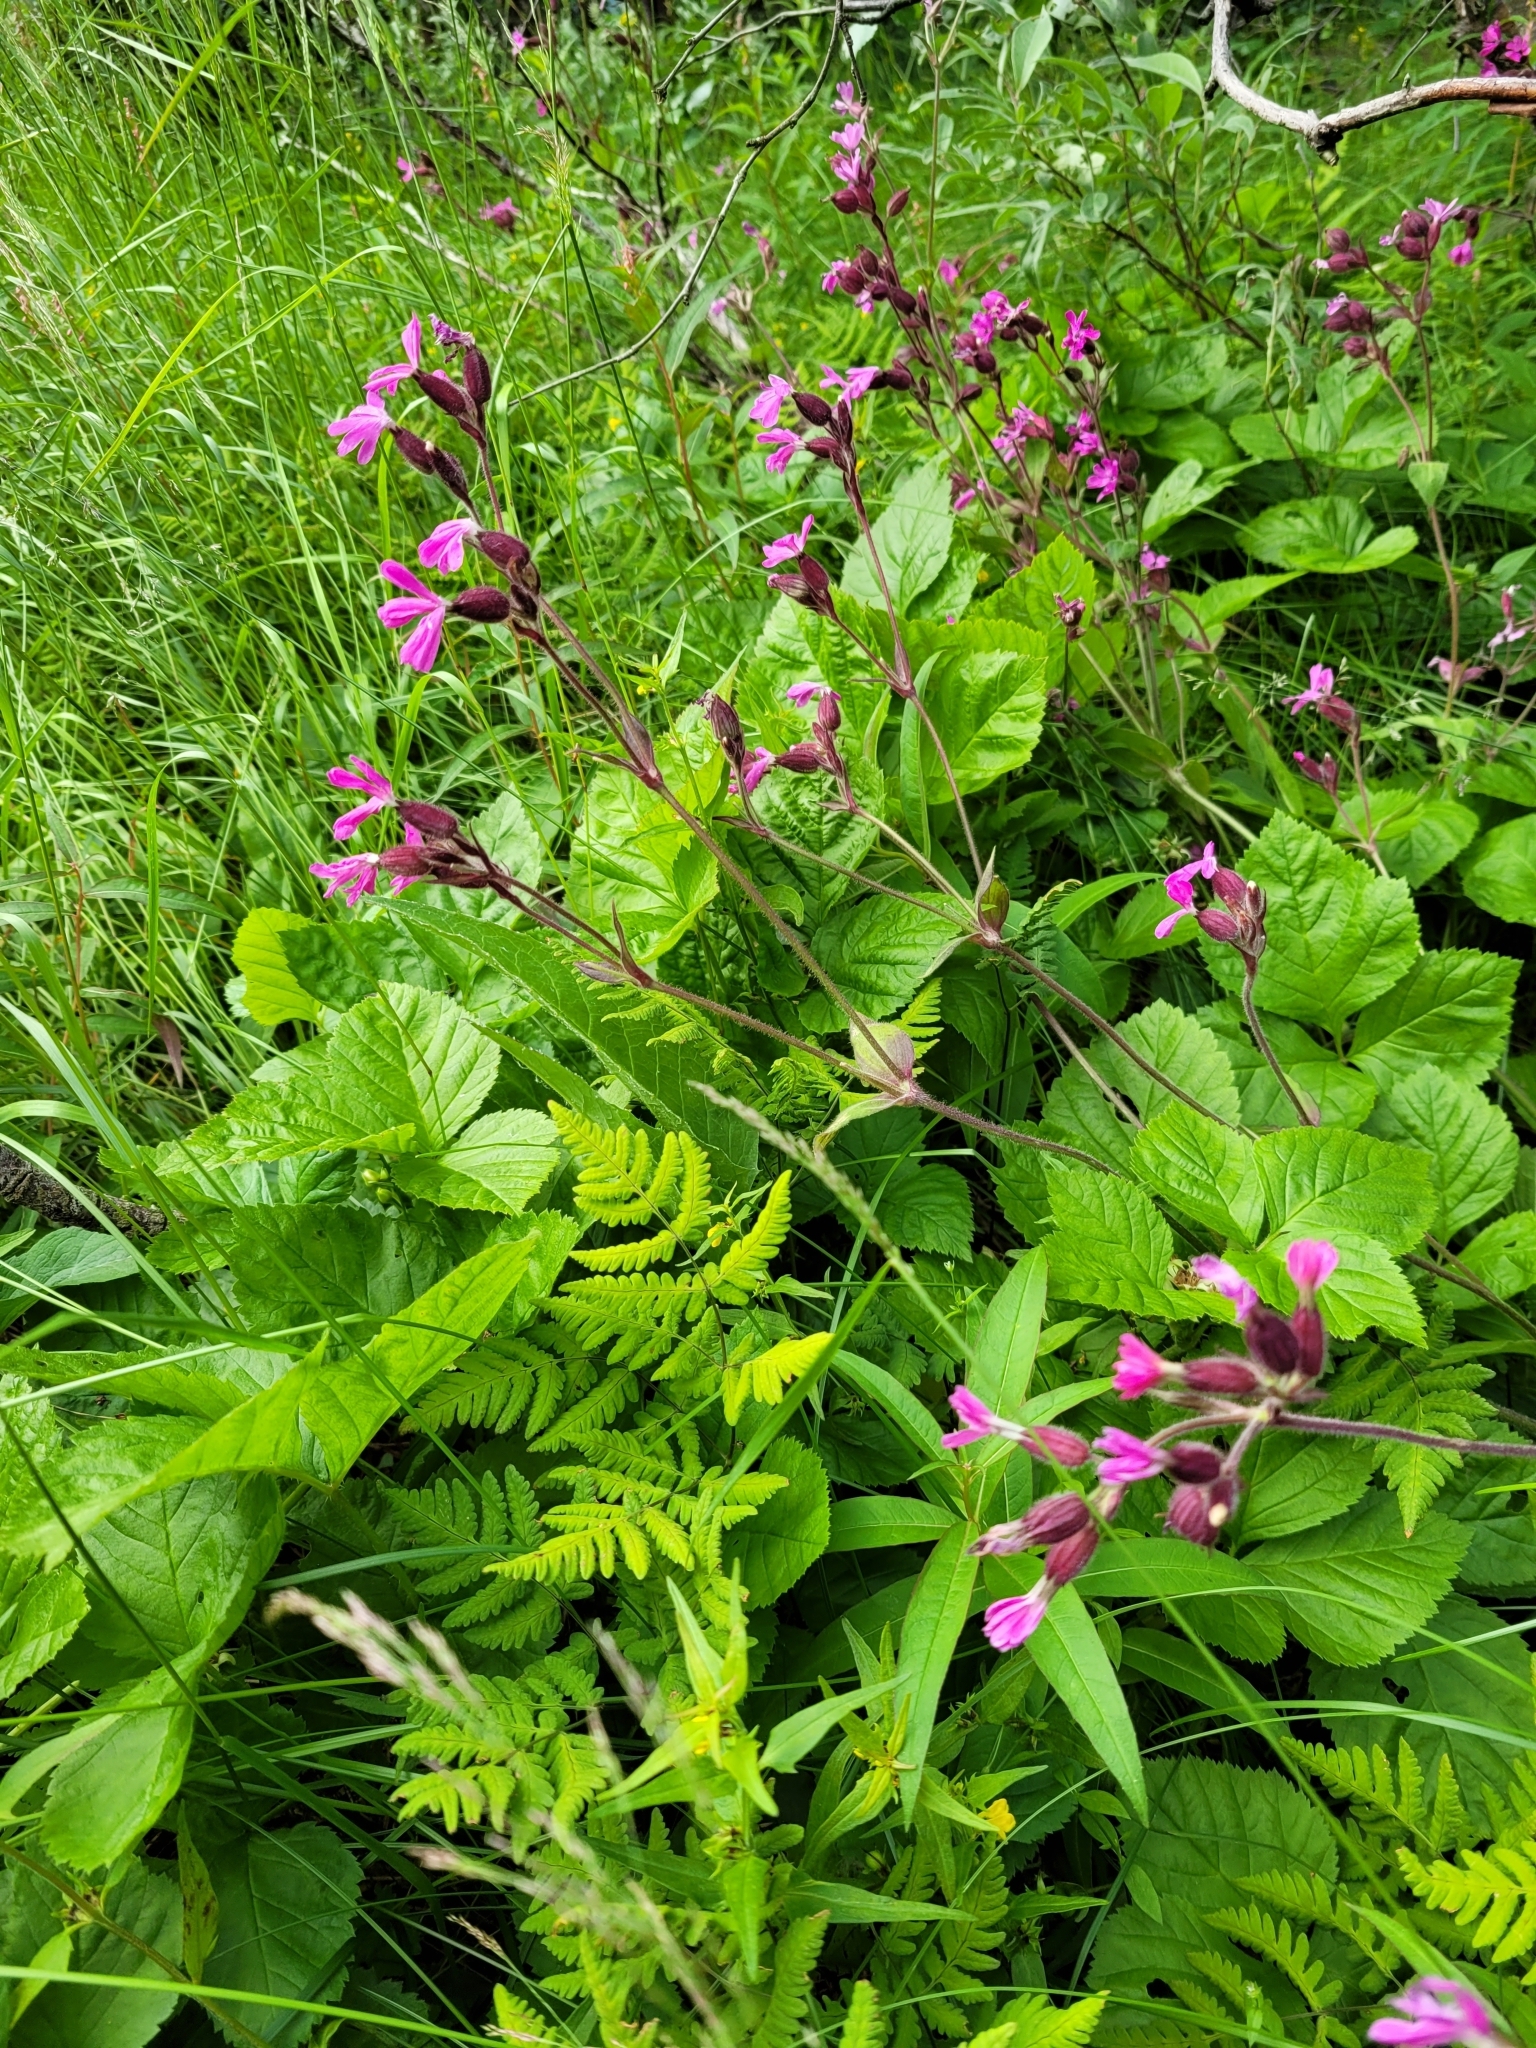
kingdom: Plantae
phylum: Tracheophyta
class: Magnoliopsida
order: Caryophyllales
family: Caryophyllaceae
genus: Silene
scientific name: Silene dioica
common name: Red campion
